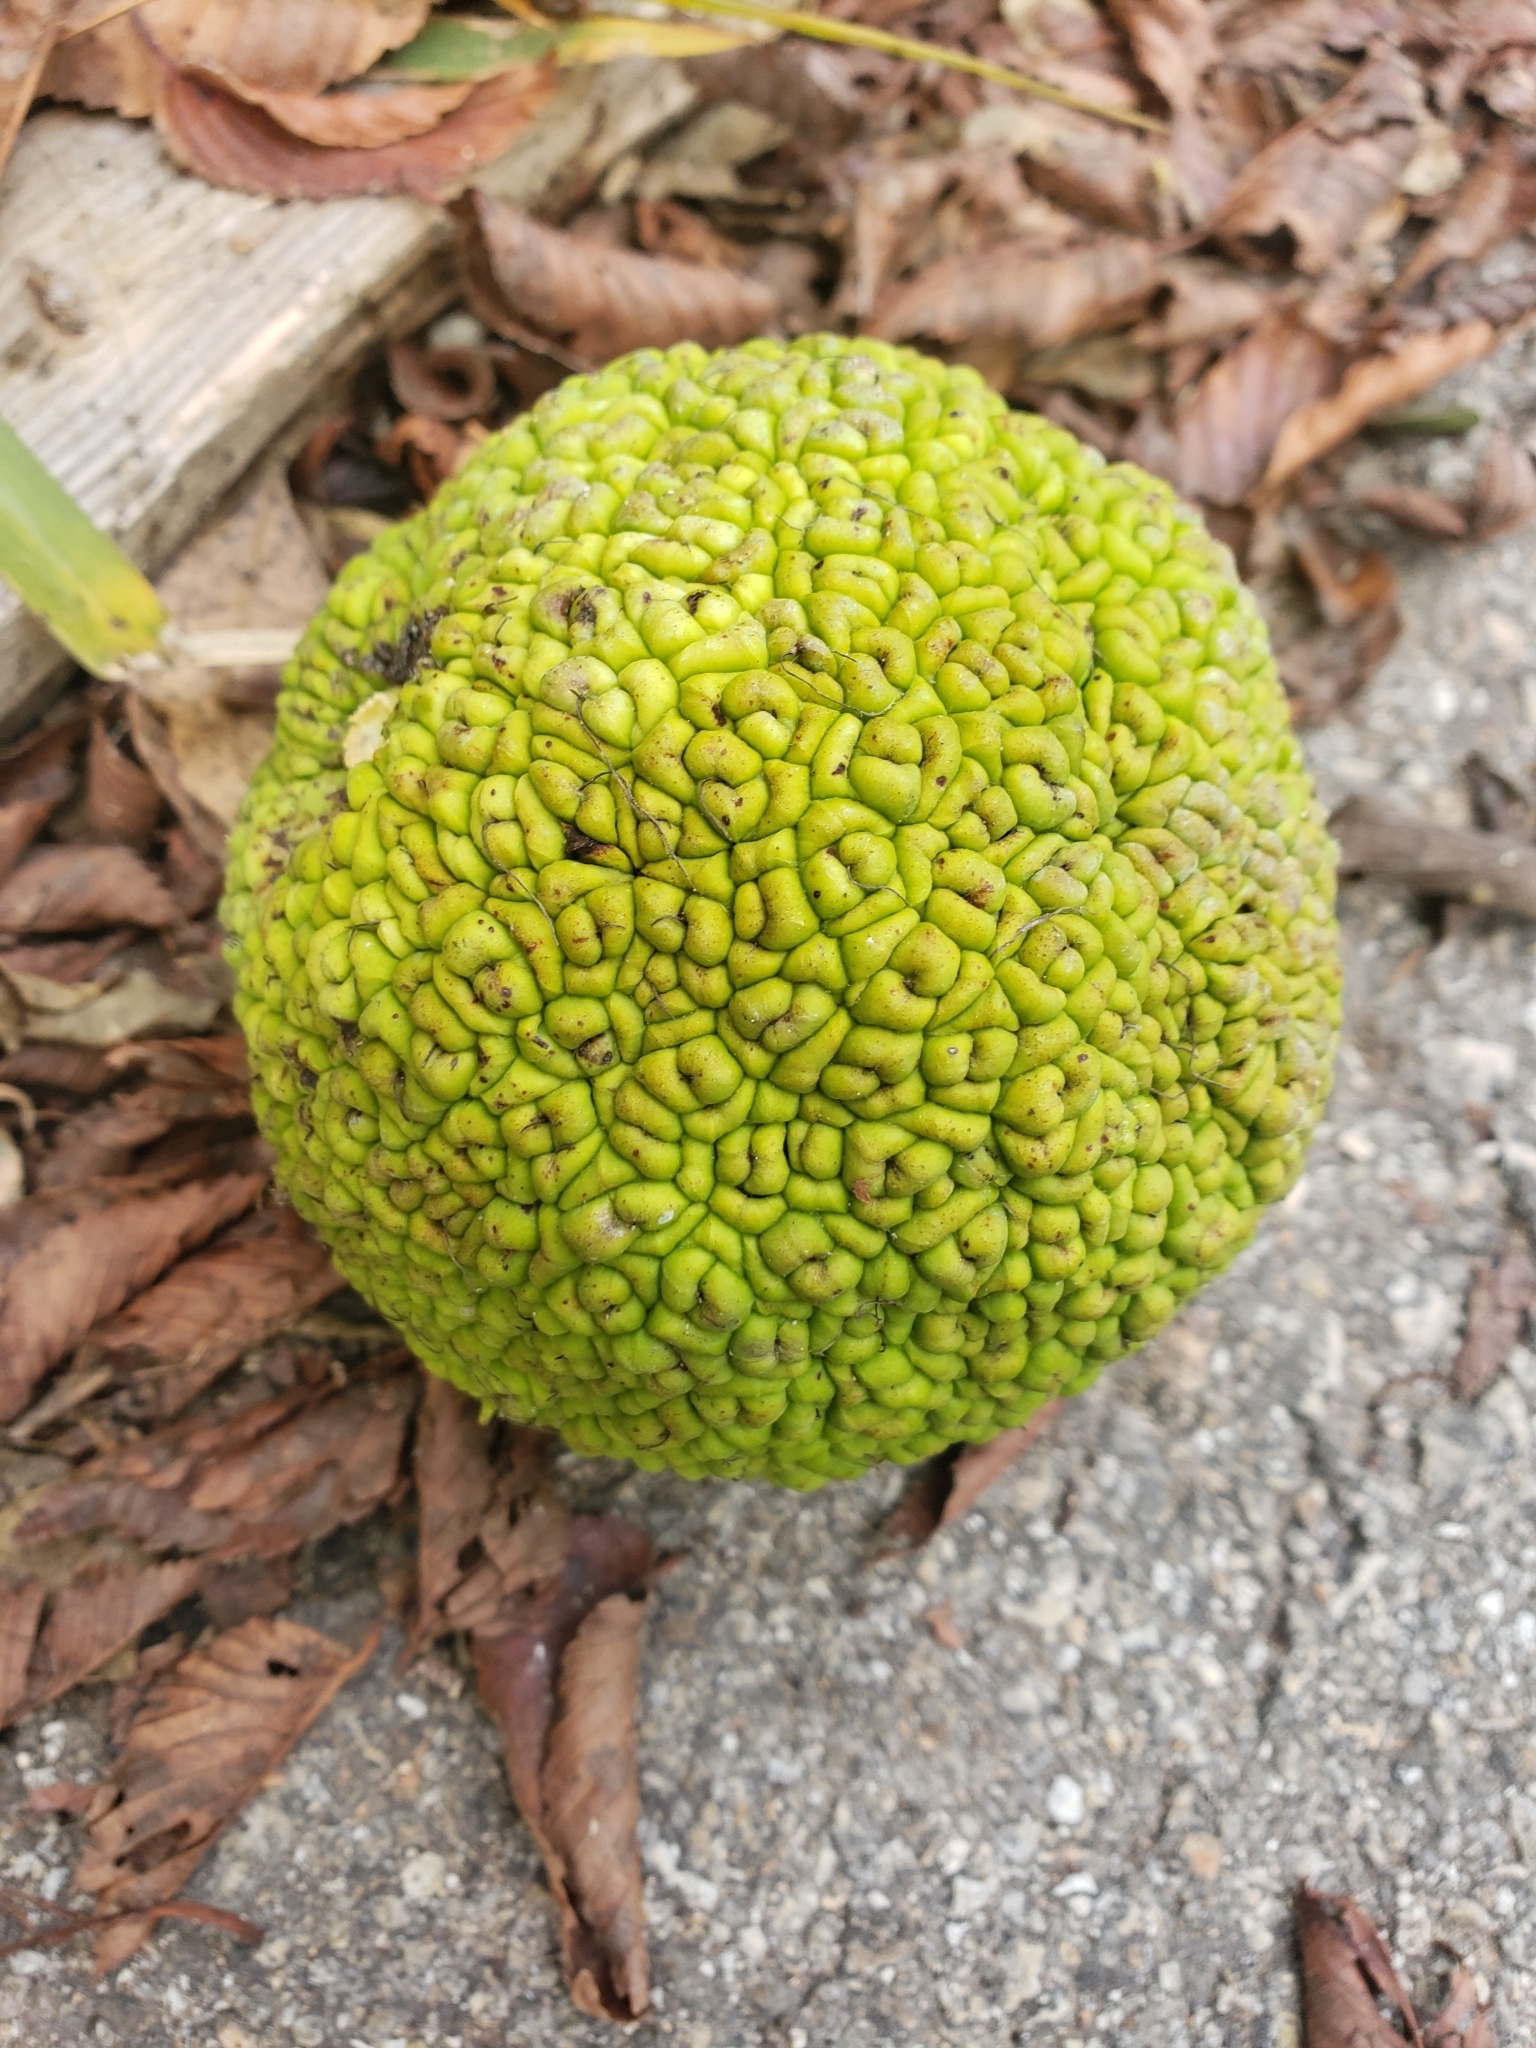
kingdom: Plantae
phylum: Tracheophyta
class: Magnoliopsida
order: Rosales
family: Moraceae
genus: Maclura
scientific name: Maclura pomifera
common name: Osage-orange
